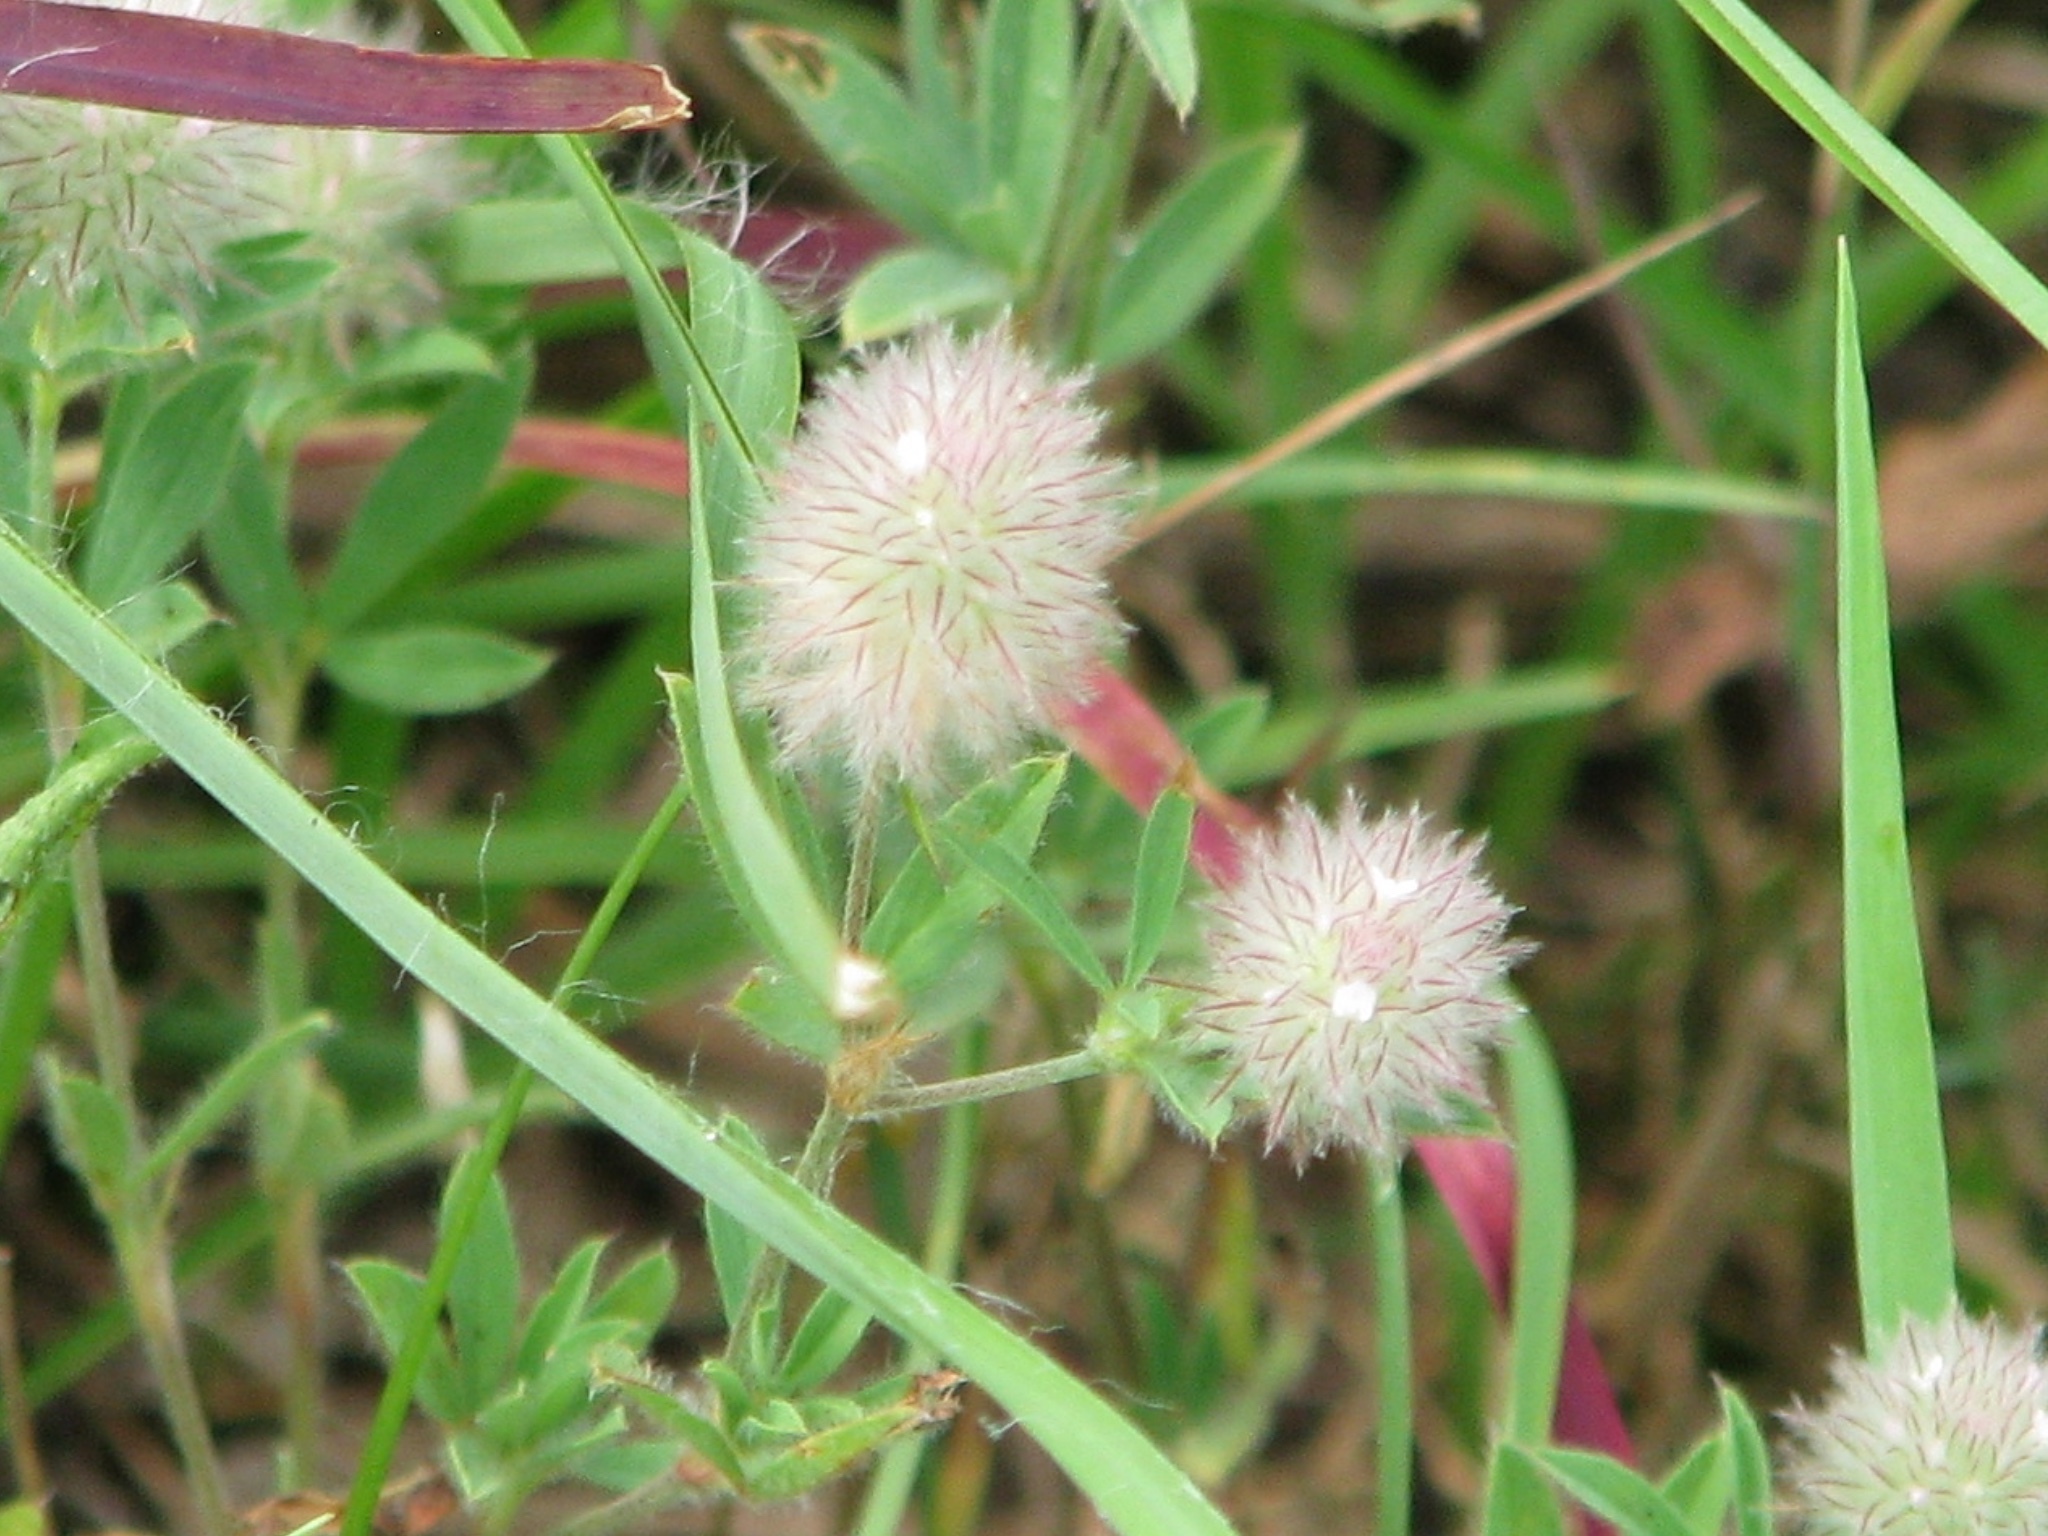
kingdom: Plantae
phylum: Tracheophyta
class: Magnoliopsida
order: Fabales
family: Fabaceae
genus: Trifolium
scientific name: Trifolium arvense
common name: Hare's-foot clover
